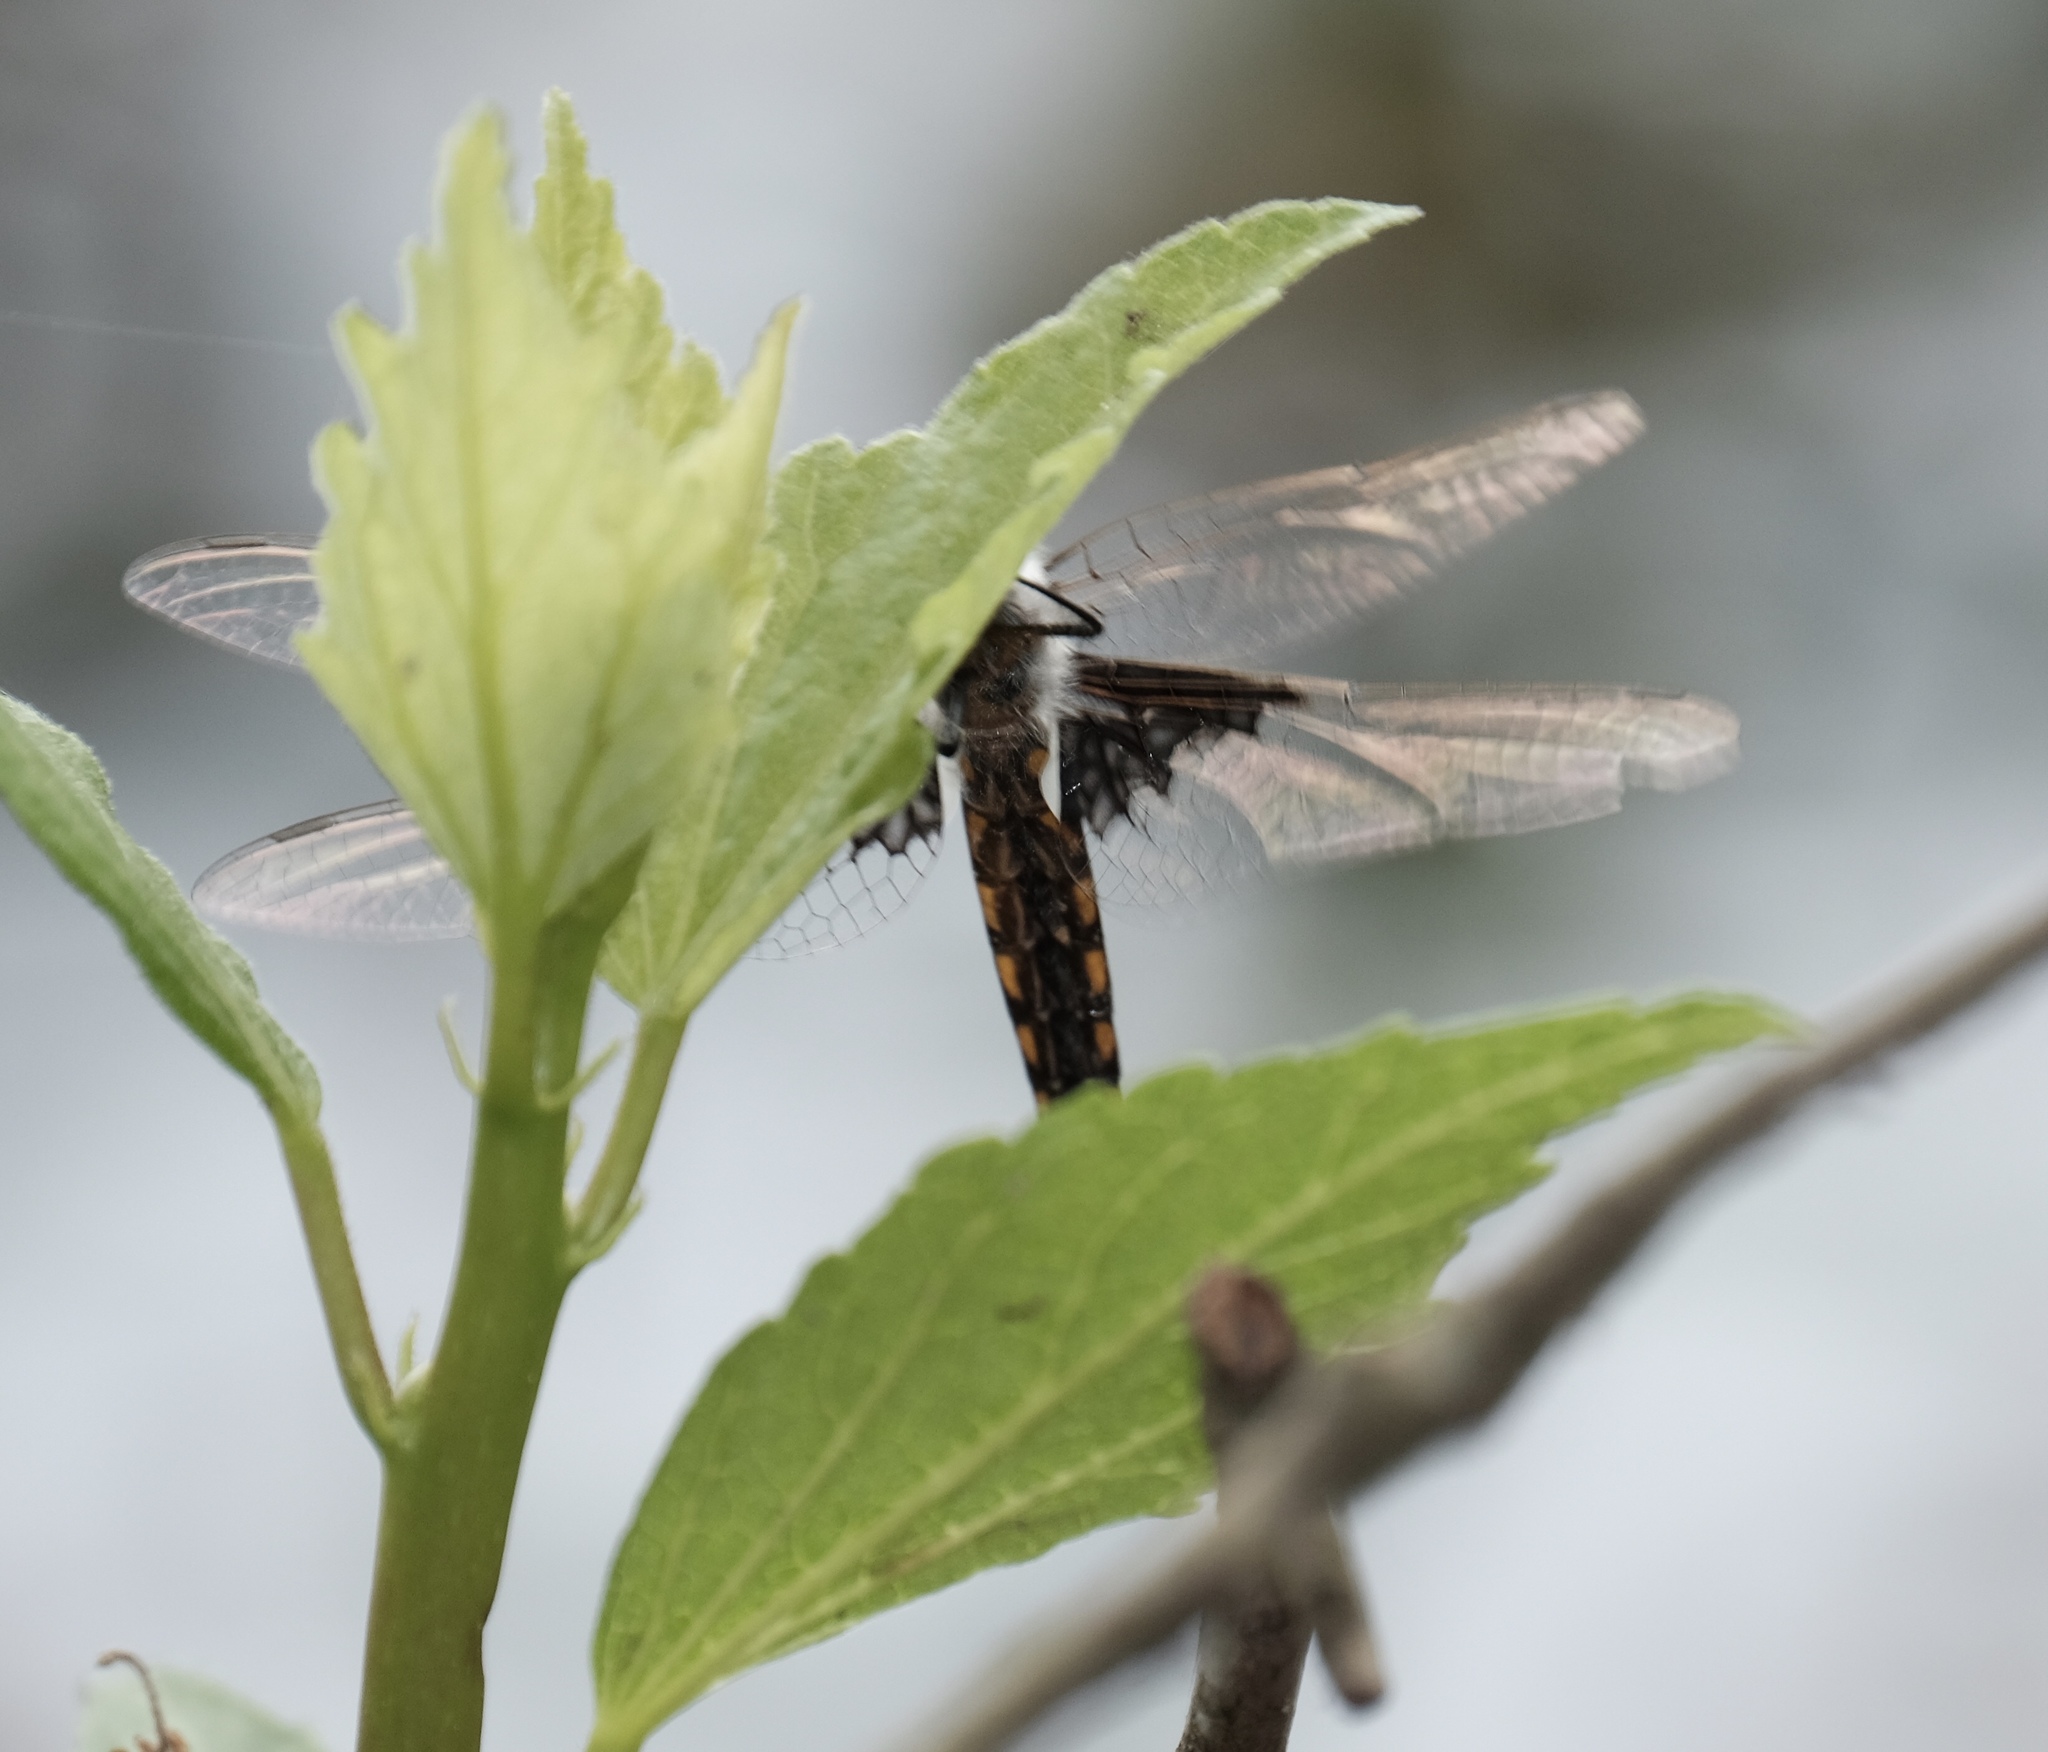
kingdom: Animalia
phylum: Arthropoda
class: Insecta
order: Odonata
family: Corduliidae
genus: Epitheca
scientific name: Epitheca semiaquea
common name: Mantled baskettail
